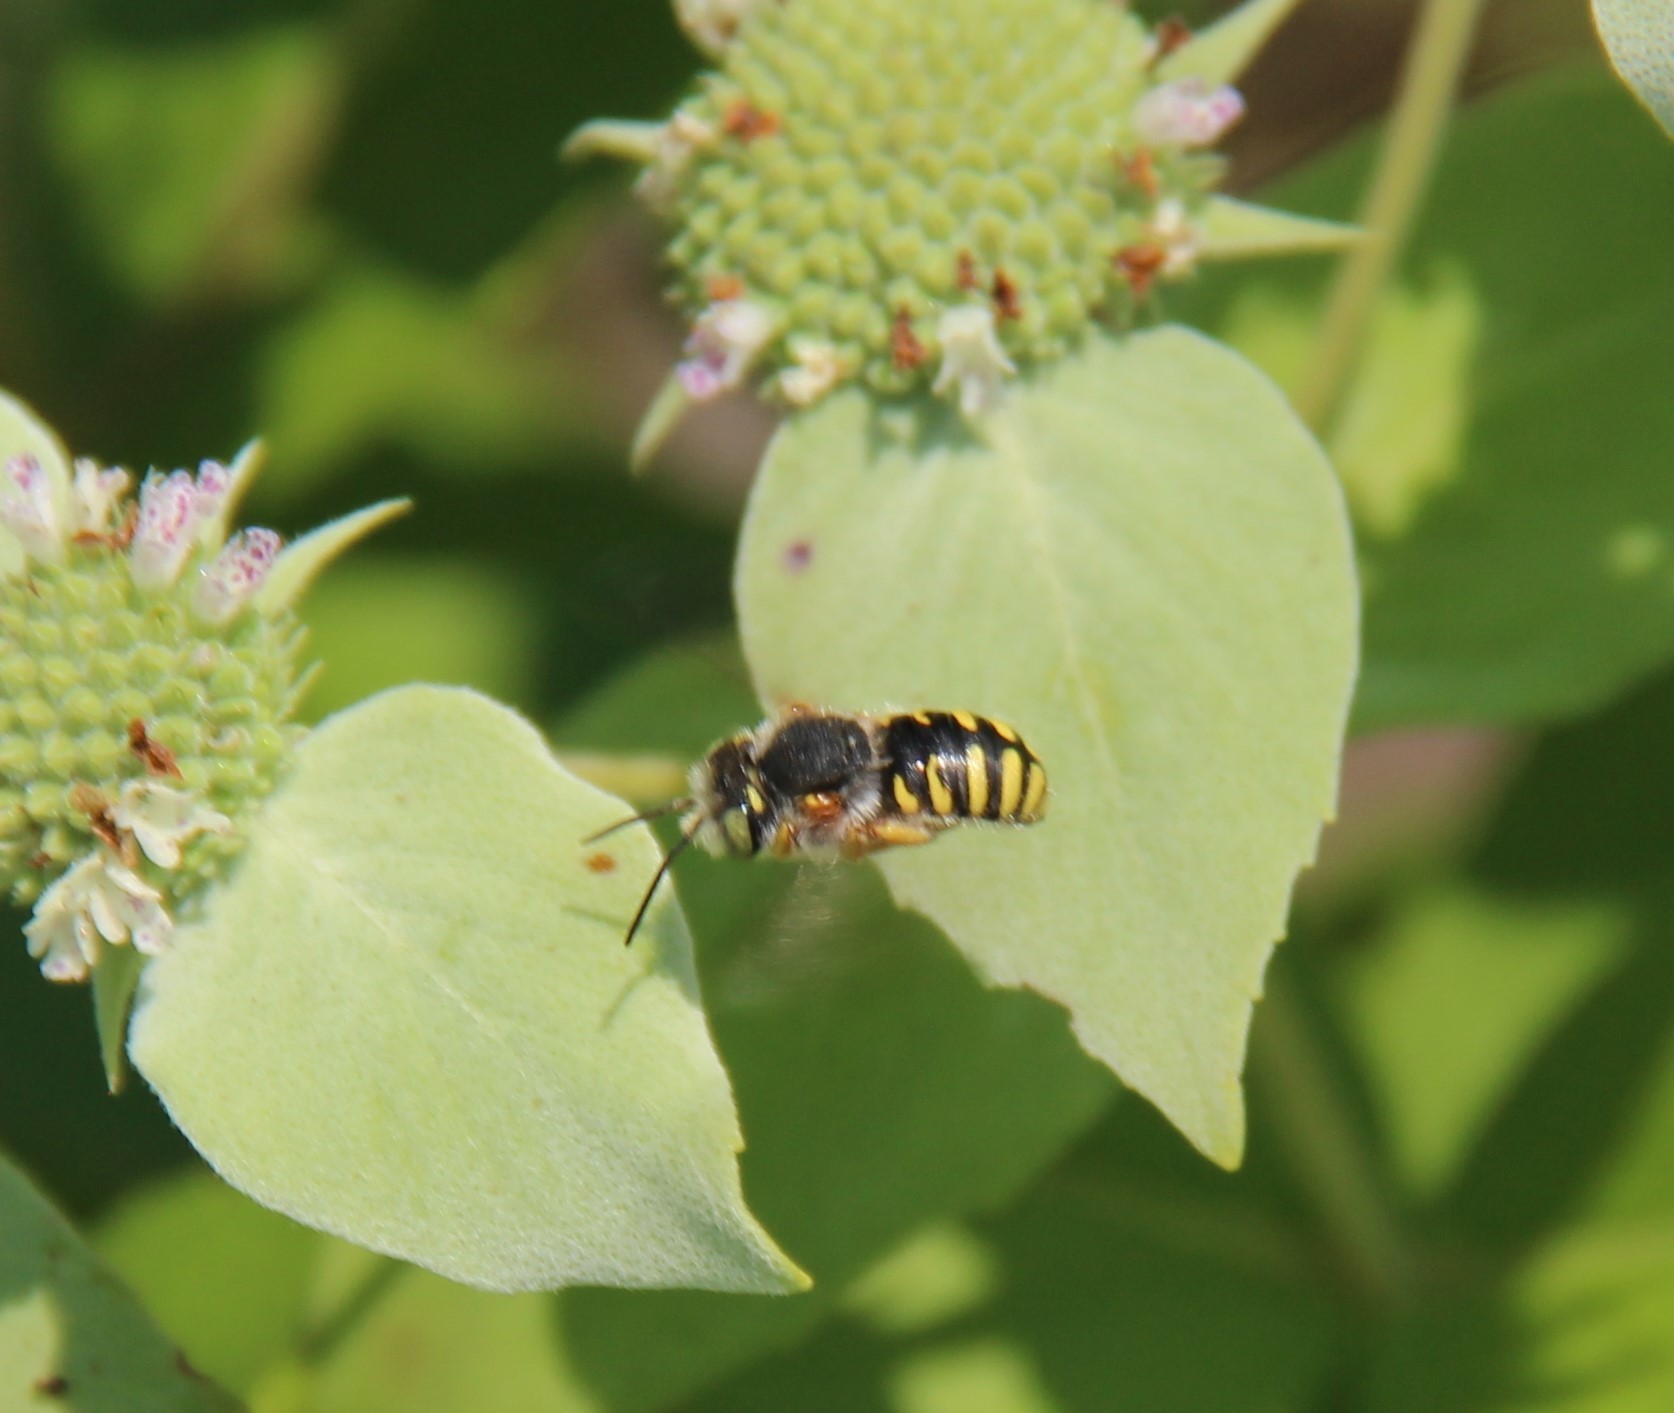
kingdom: Animalia
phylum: Arthropoda
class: Insecta
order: Hymenoptera
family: Megachilidae
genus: Anthidium
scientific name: Anthidium oblongatum
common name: Oblong wool carder bee
